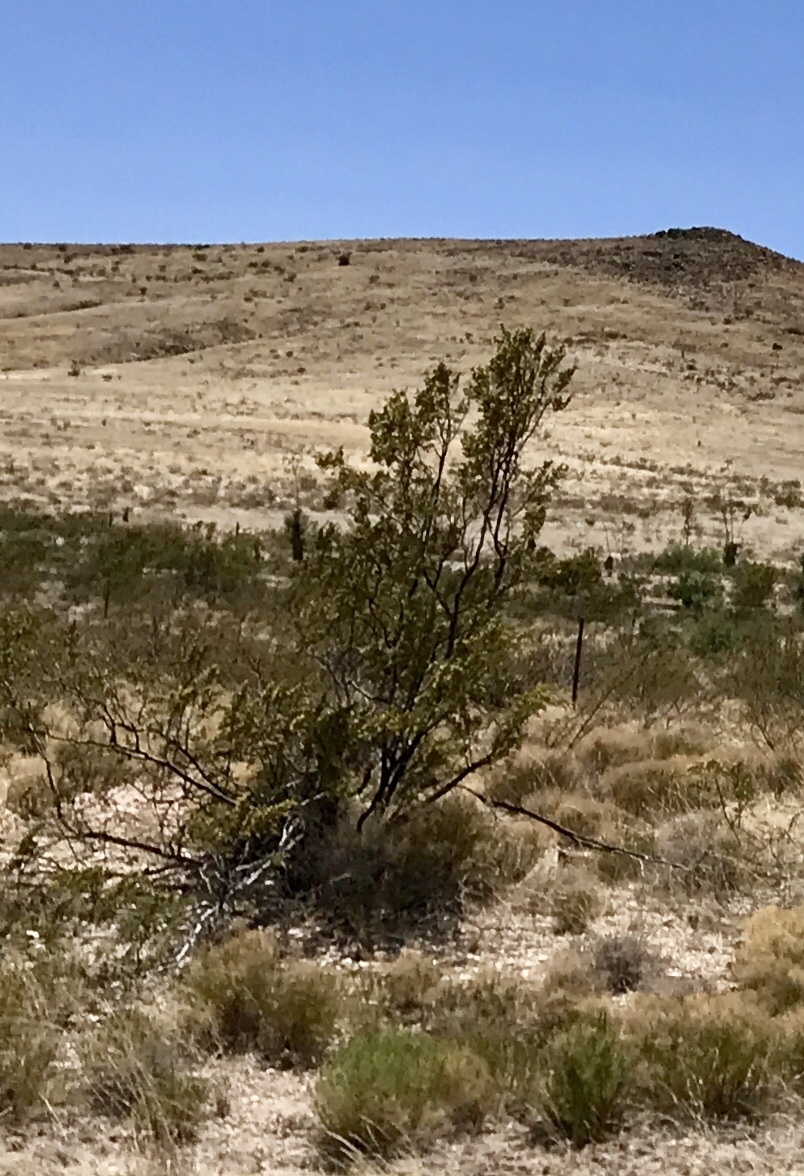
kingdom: Plantae
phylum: Tracheophyta
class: Magnoliopsida
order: Zygophyllales
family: Zygophyllaceae
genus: Larrea
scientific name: Larrea tridentata
